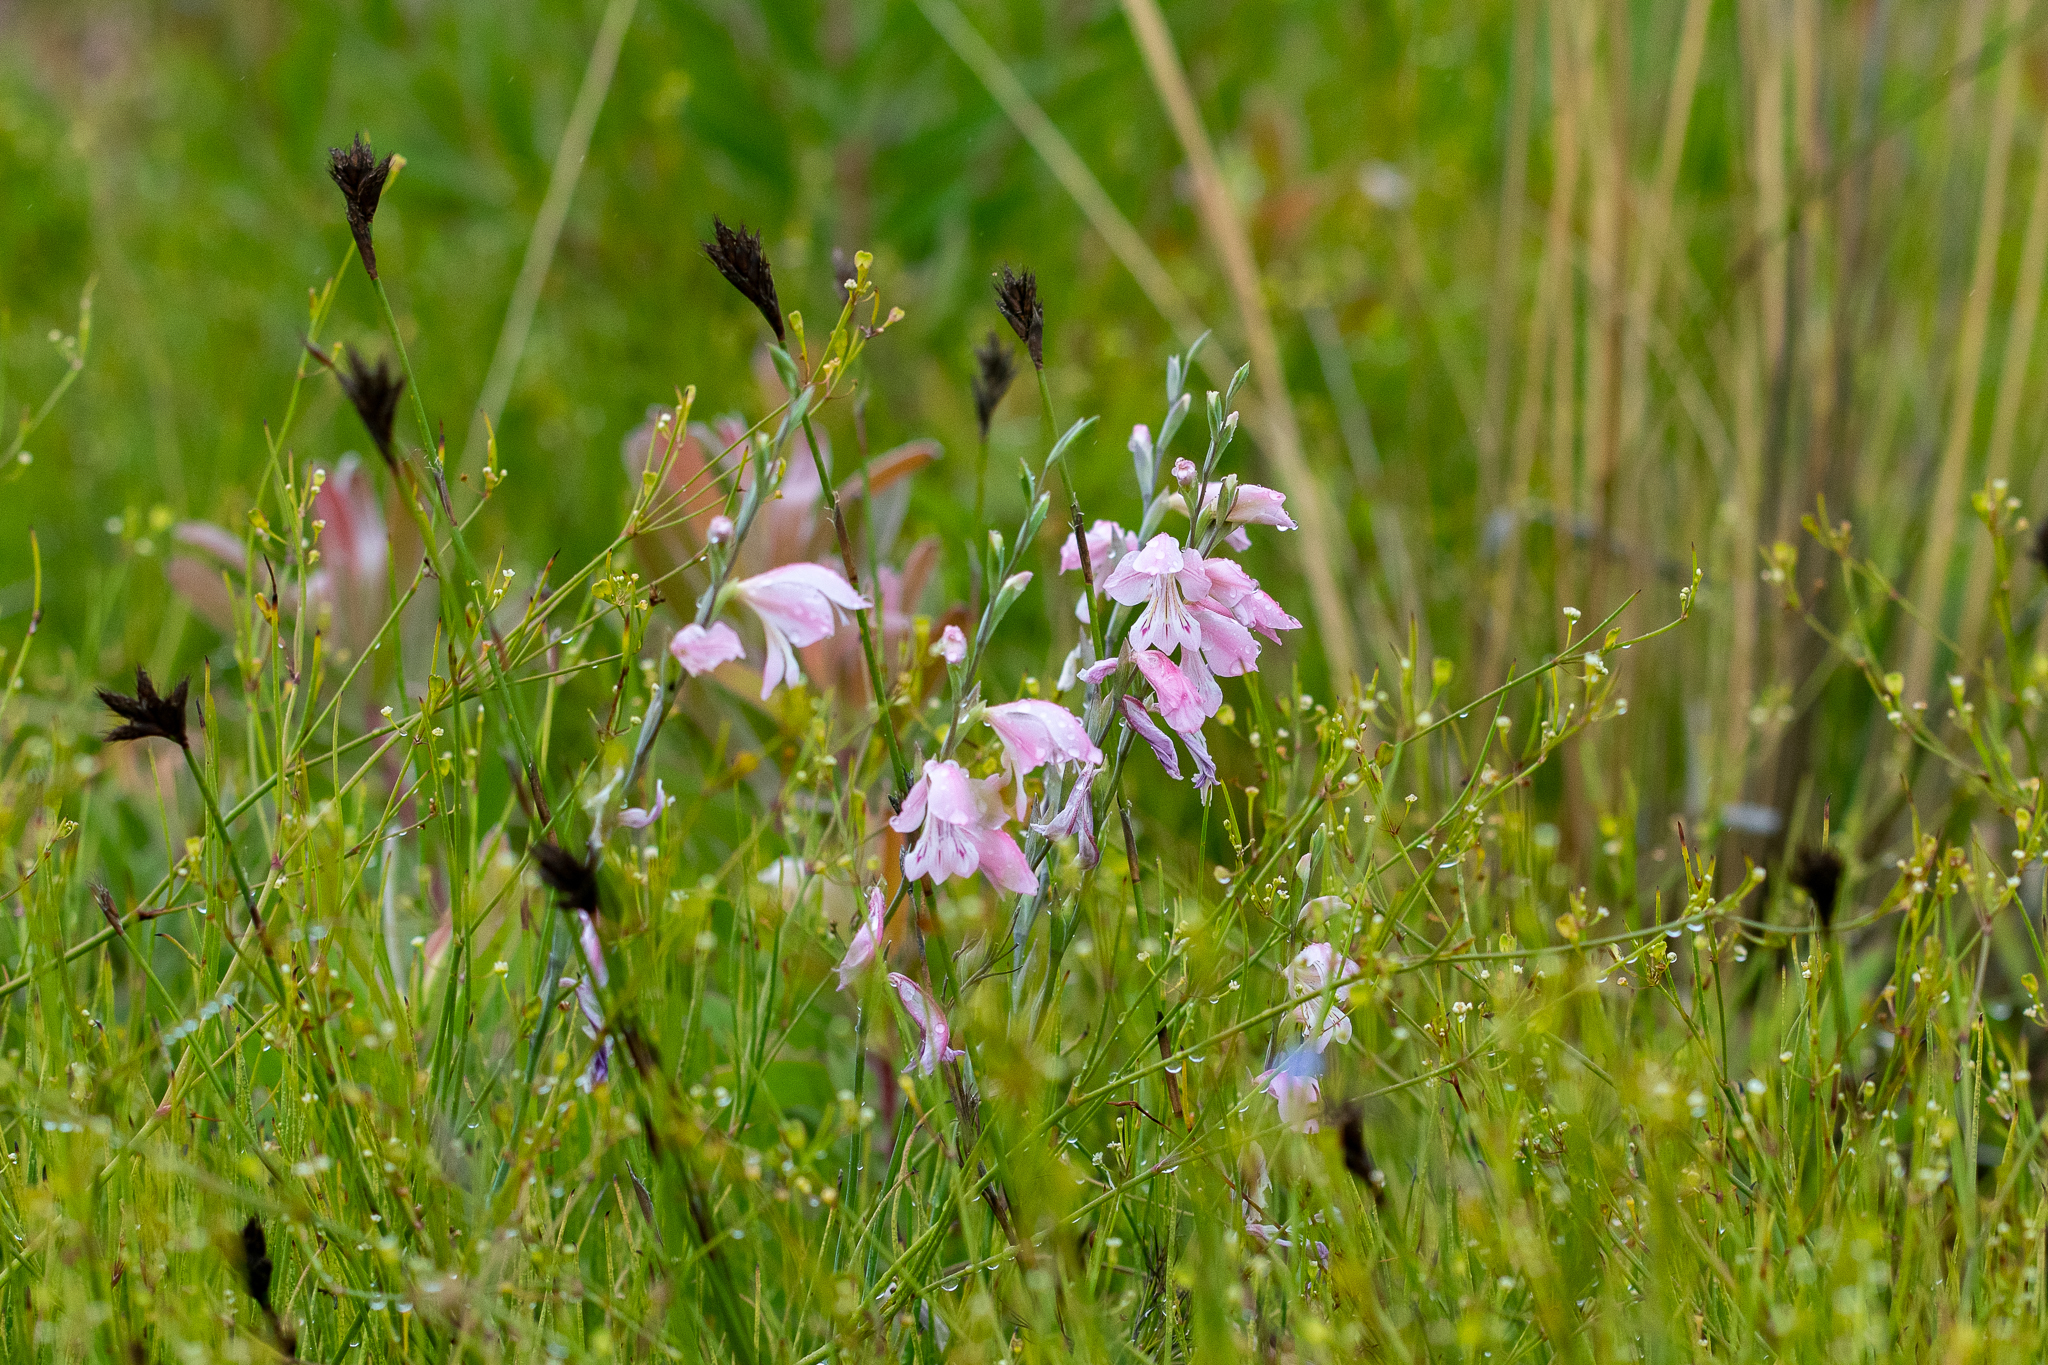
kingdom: Plantae
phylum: Tracheophyta
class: Liliopsida
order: Asparagales
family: Iridaceae
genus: Gladiolus
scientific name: Gladiolus brevifolius
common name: March pypie
